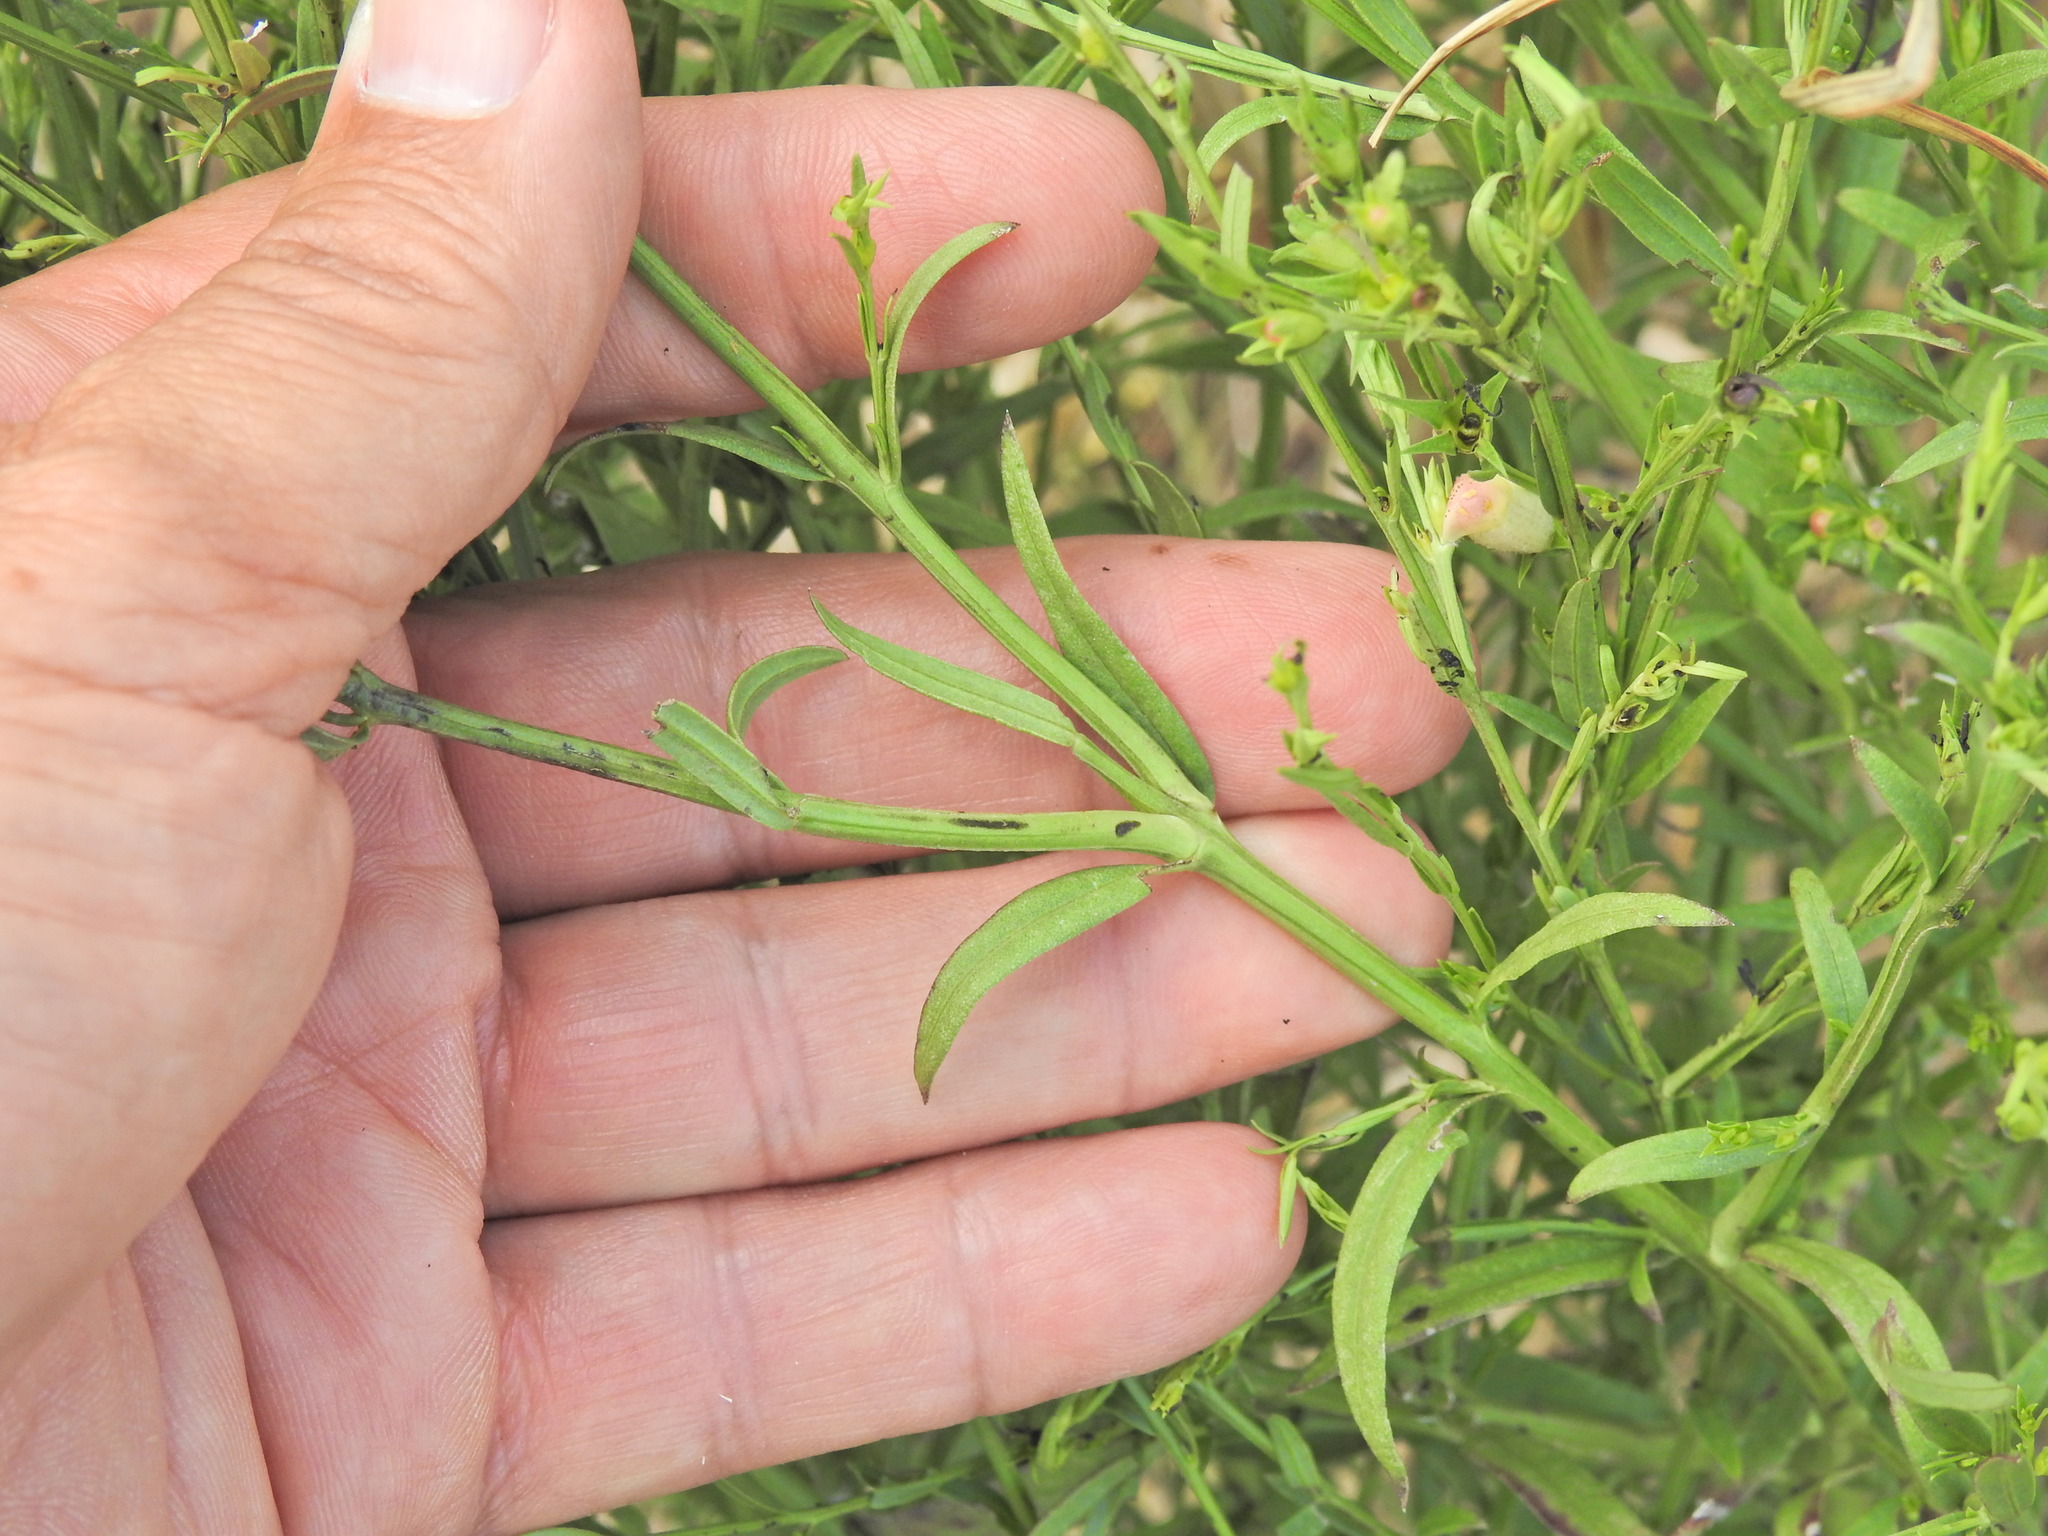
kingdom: Plantae
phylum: Tracheophyta
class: Magnoliopsida
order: Lamiales
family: Orobanchaceae
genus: Agalinis
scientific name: Agalinis heterophylla
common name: Prairie agalinis
